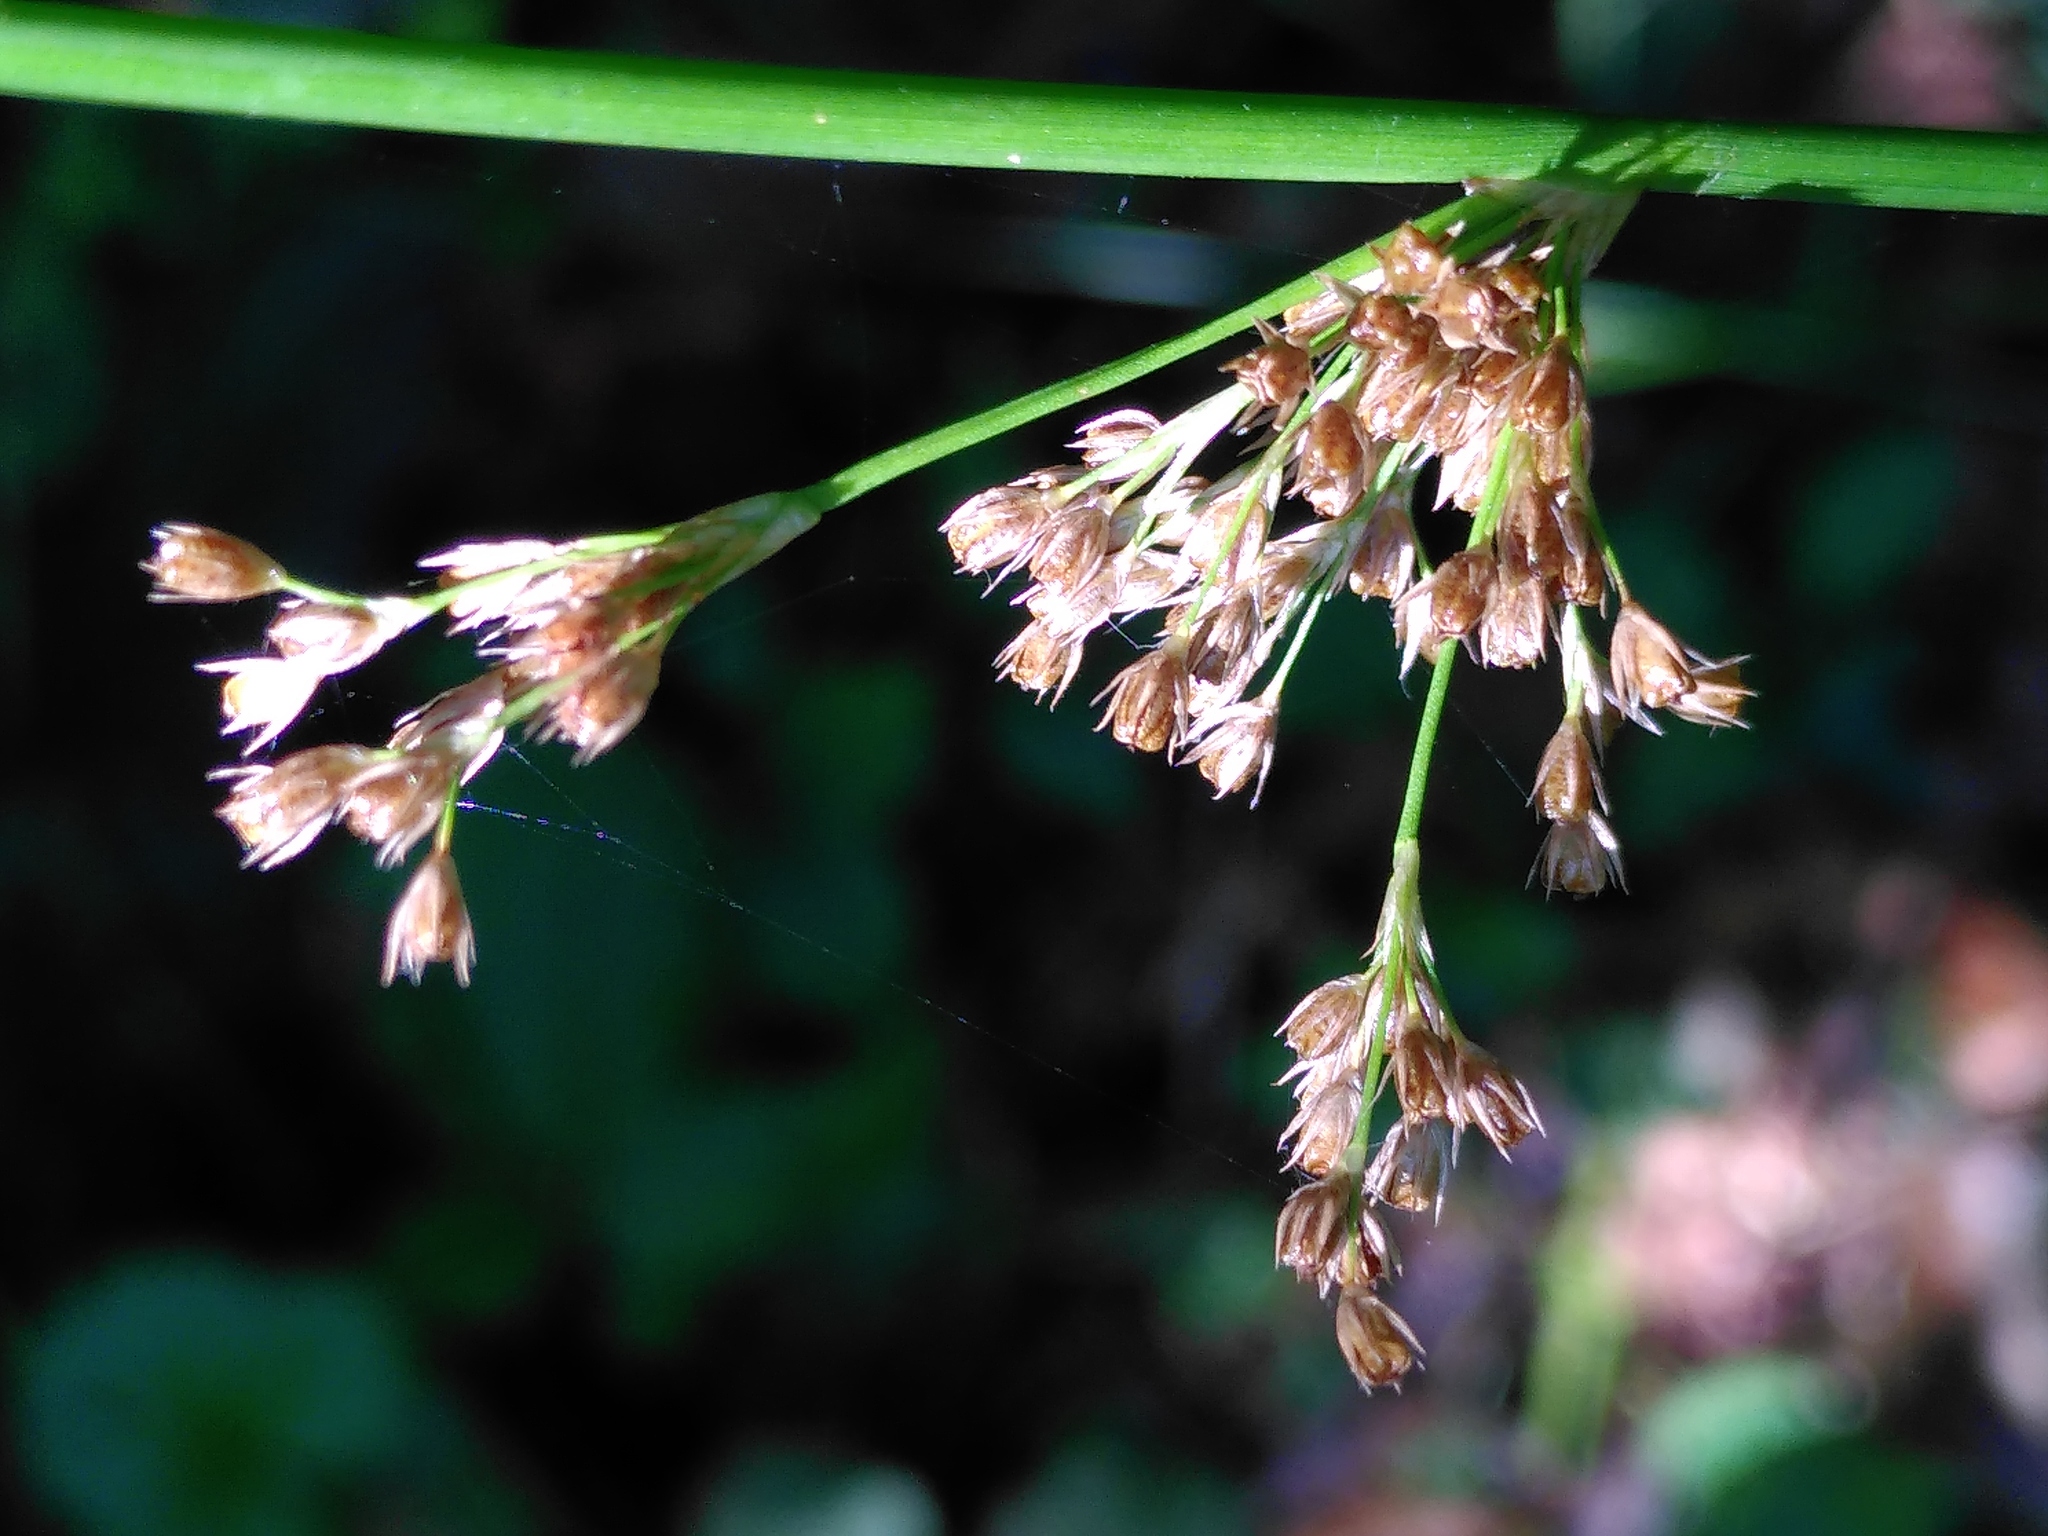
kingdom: Plantae
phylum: Tracheophyta
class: Liliopsida
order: Poales
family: Juncaceae
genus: Juncus
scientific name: Juncus effusus
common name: Soft rush
